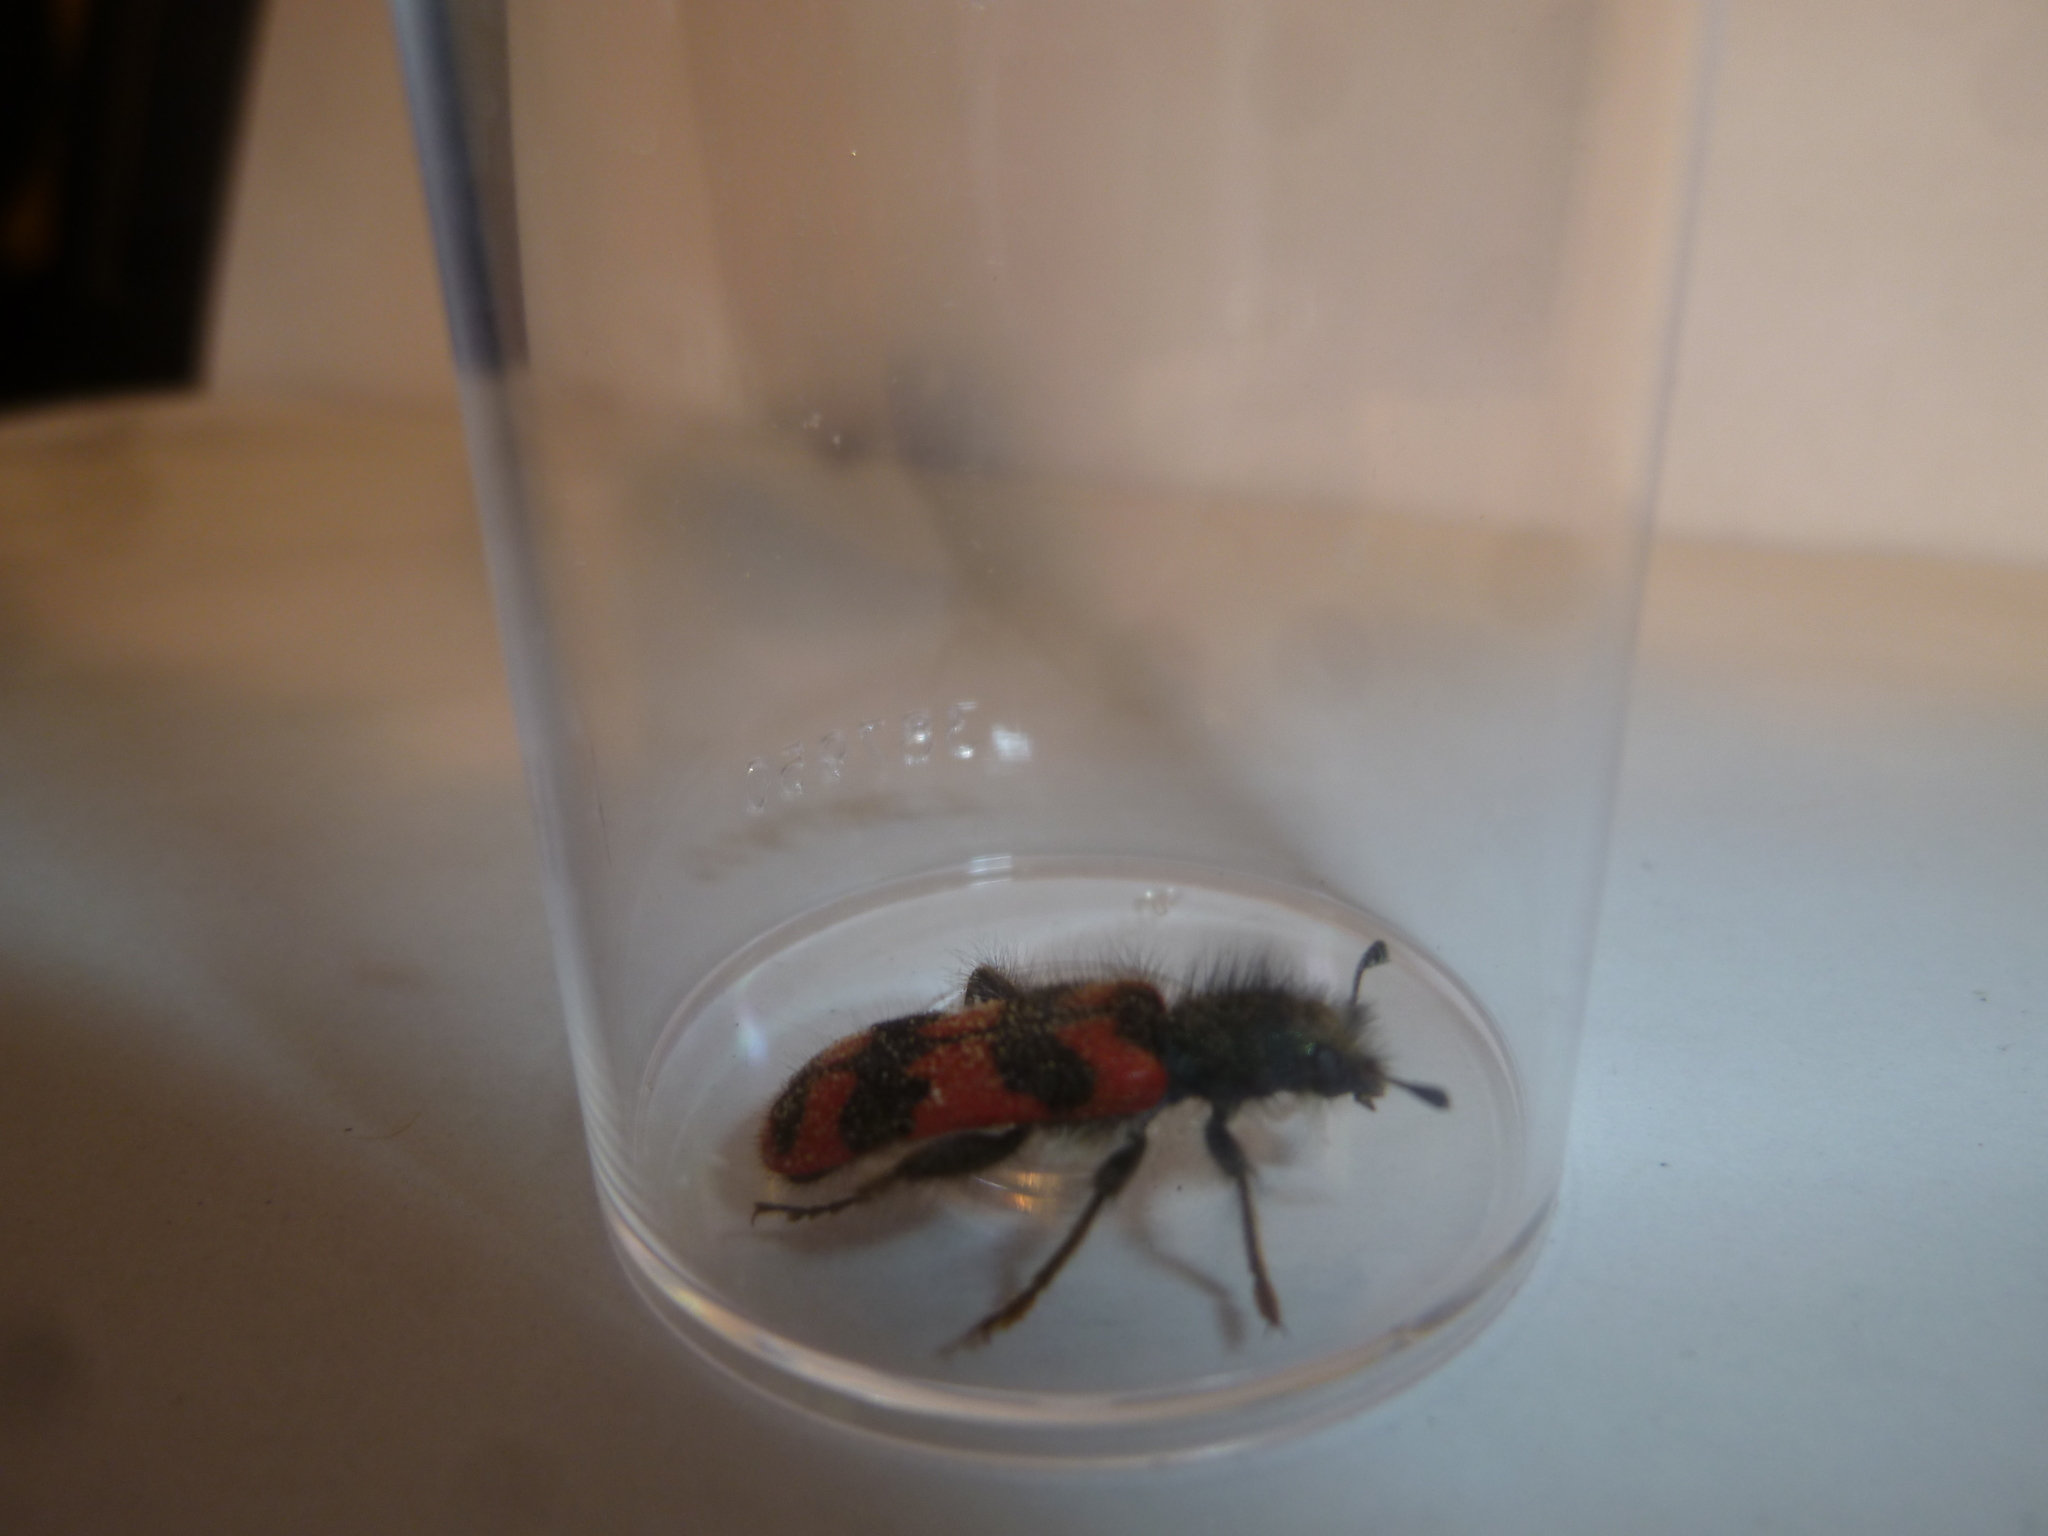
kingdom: Animalia
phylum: Arthropoda
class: Insecta
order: Coleoptera
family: Cleridae
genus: Trichodes
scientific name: Trichodes alvearius
